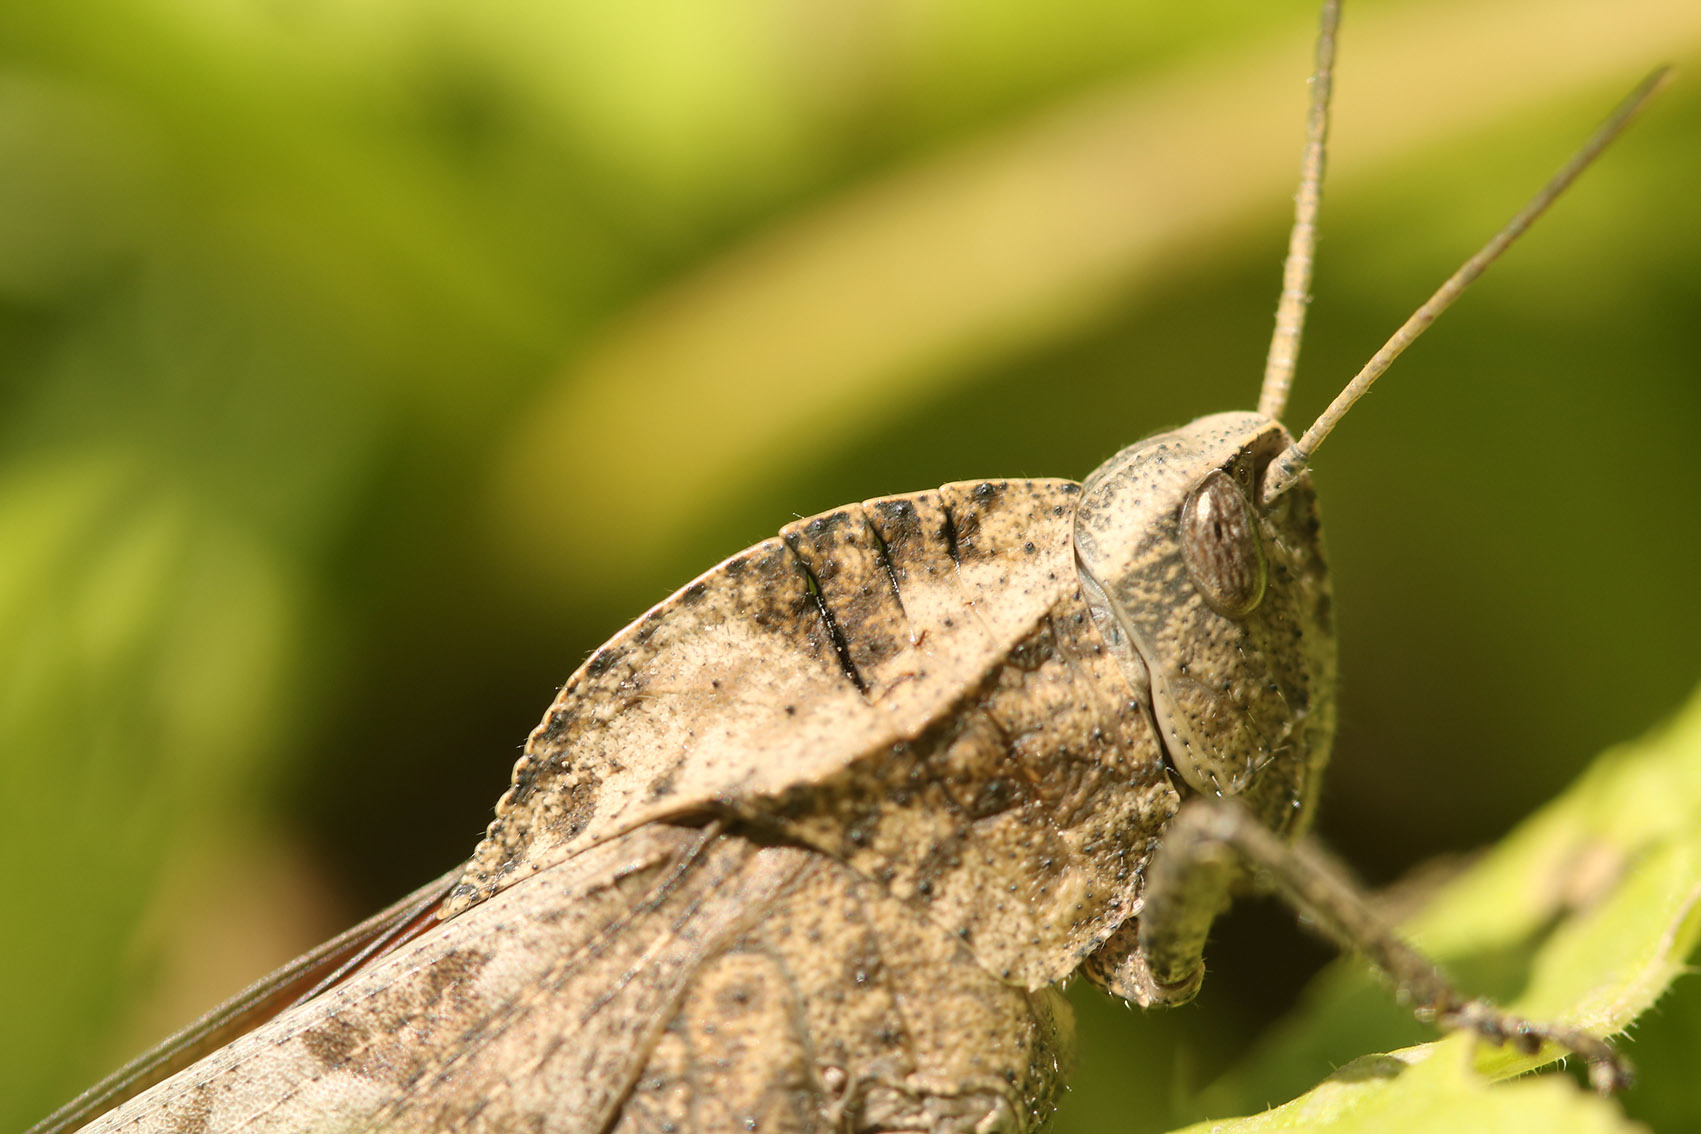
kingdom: Animalia
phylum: Arthropoda
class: Insecta
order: Orthoptera
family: Romaleidae
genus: Xyleus
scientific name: Xyleus discoideus
